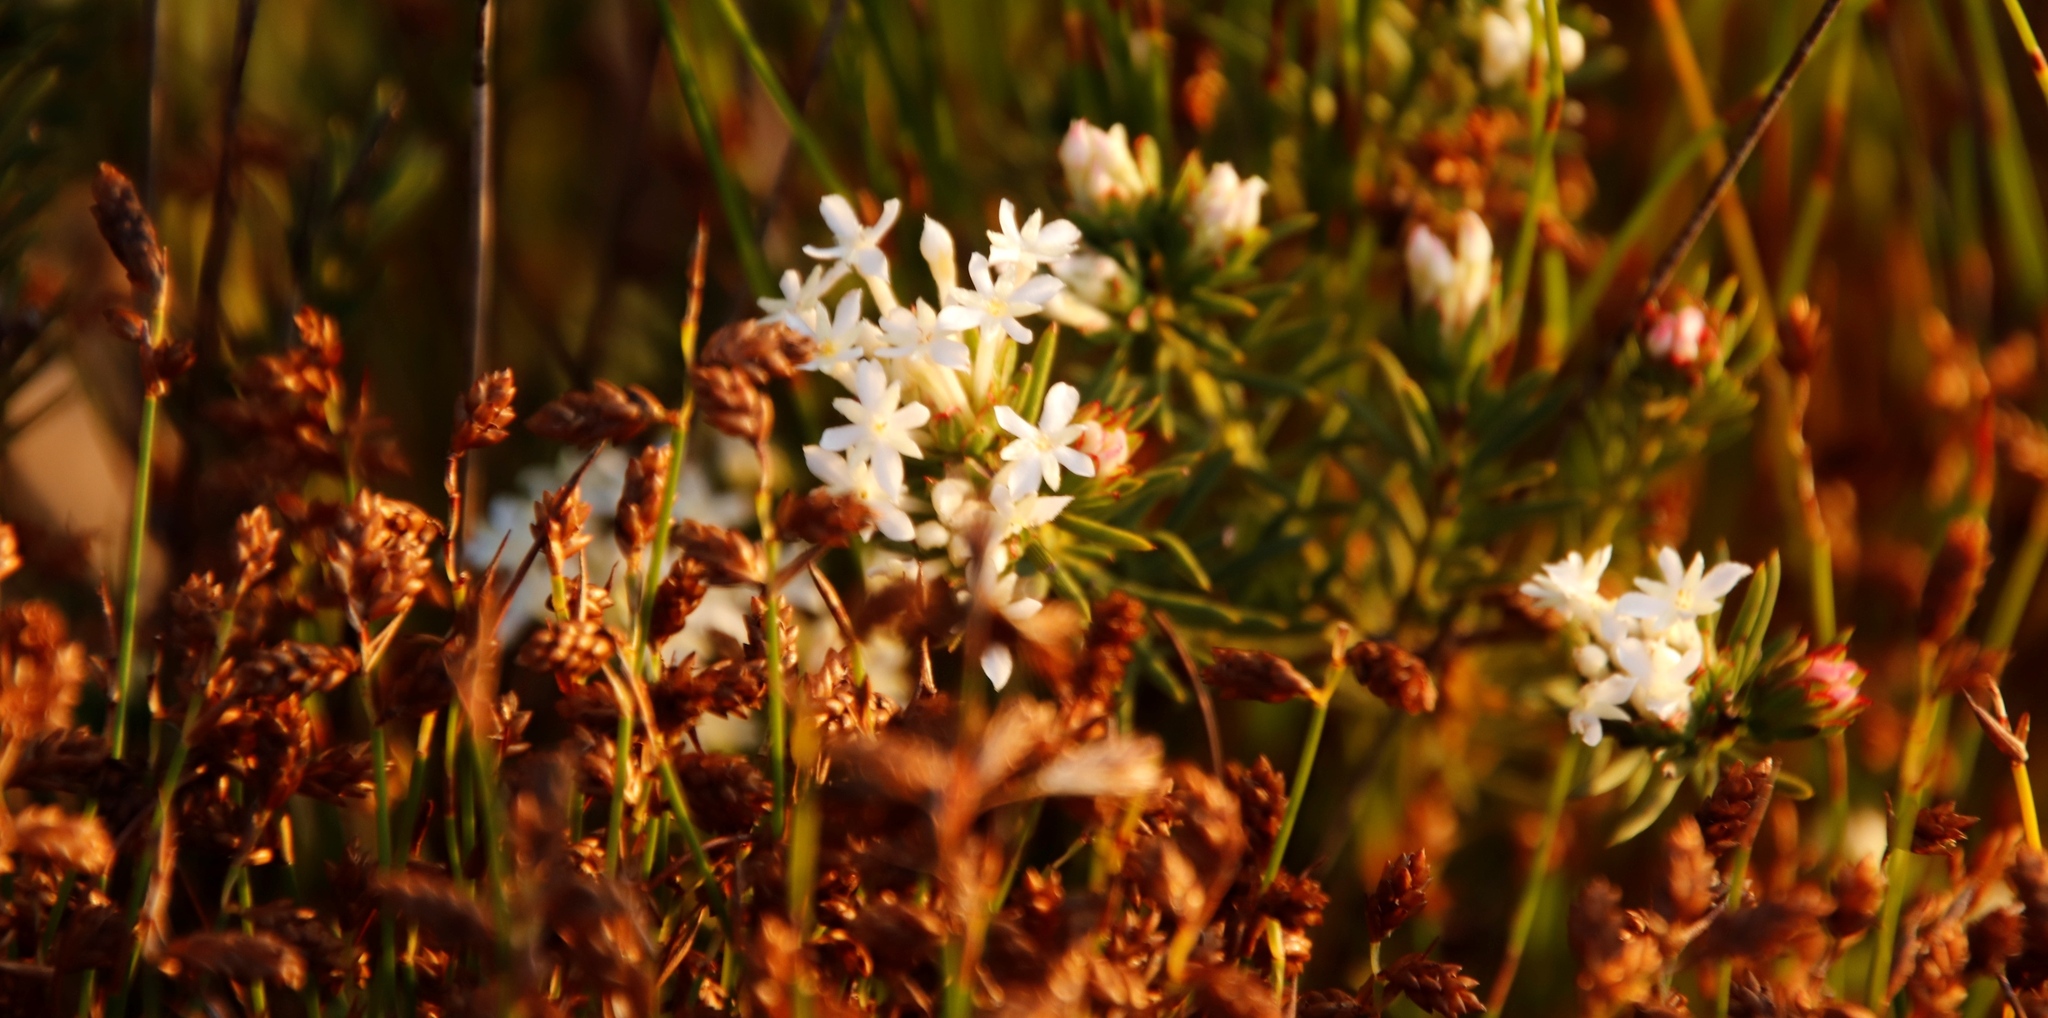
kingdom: Plantae
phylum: Tracheophyta
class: Magnoliopsida
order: Malvales
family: Thymelaeaceae
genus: Gnidia
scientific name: Gnidia pinifolia
